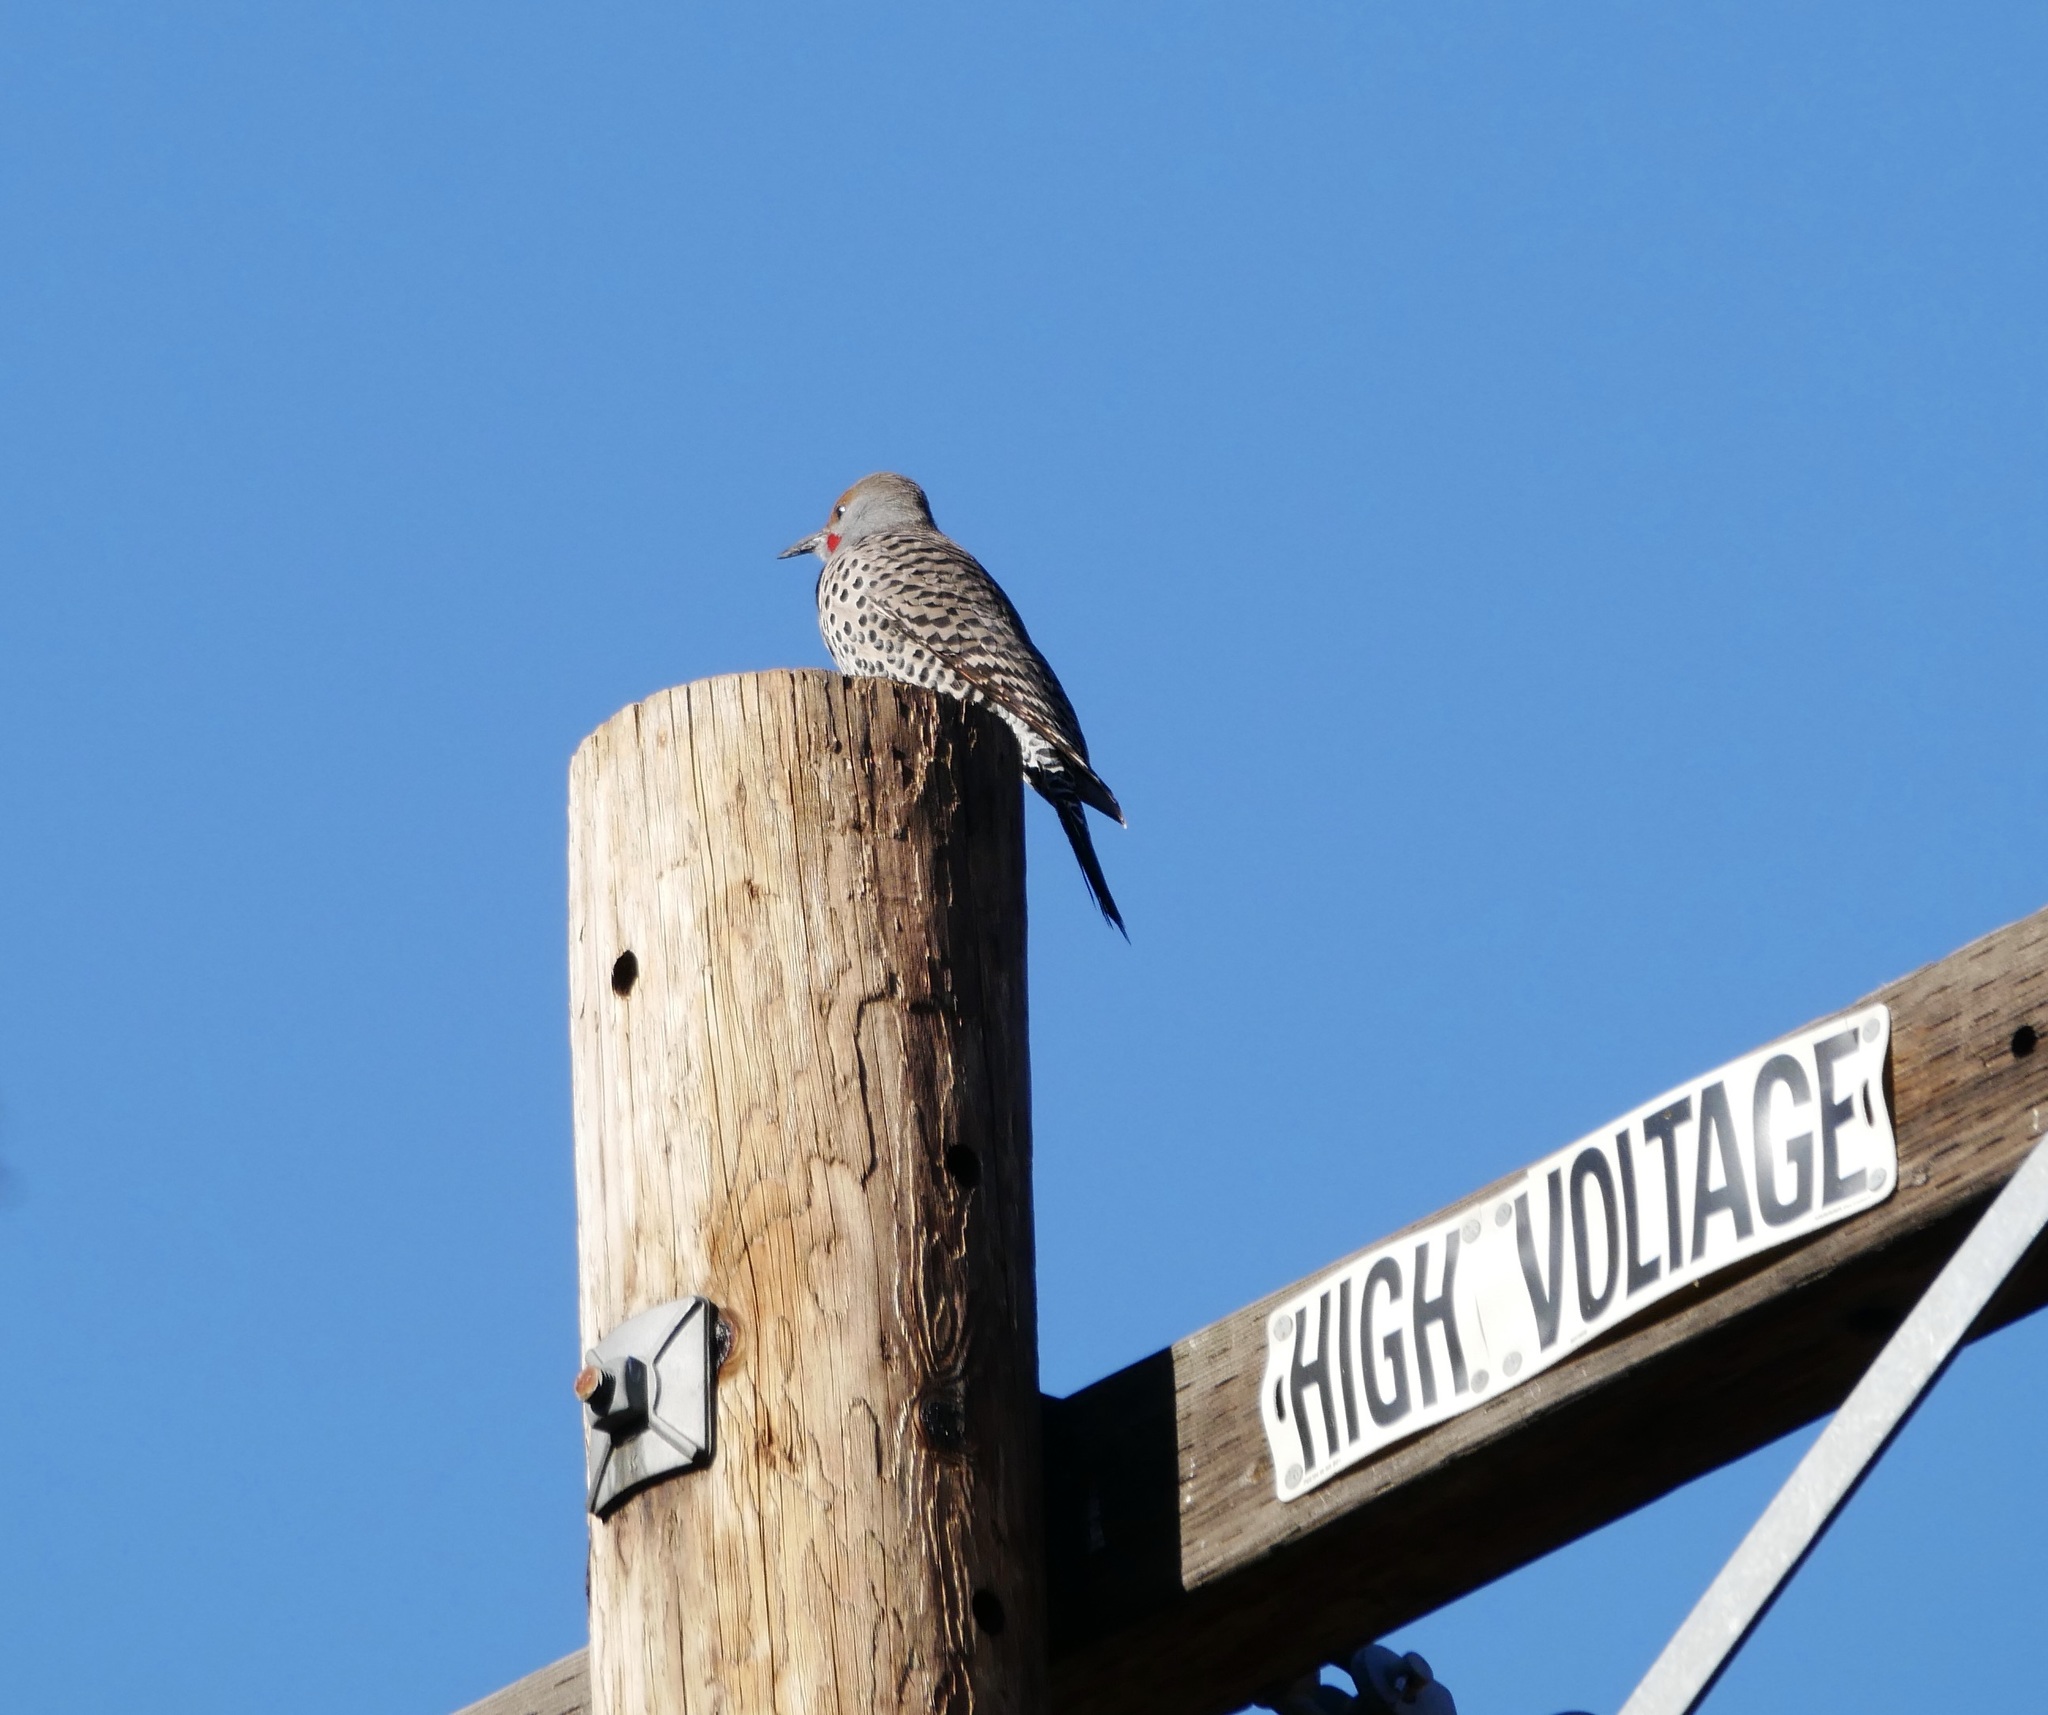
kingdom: Animalia
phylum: Chordata
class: Aves
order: Piciformes
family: Picidae
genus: Colaptes
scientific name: Colaptes auratus
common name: Northern flicker
